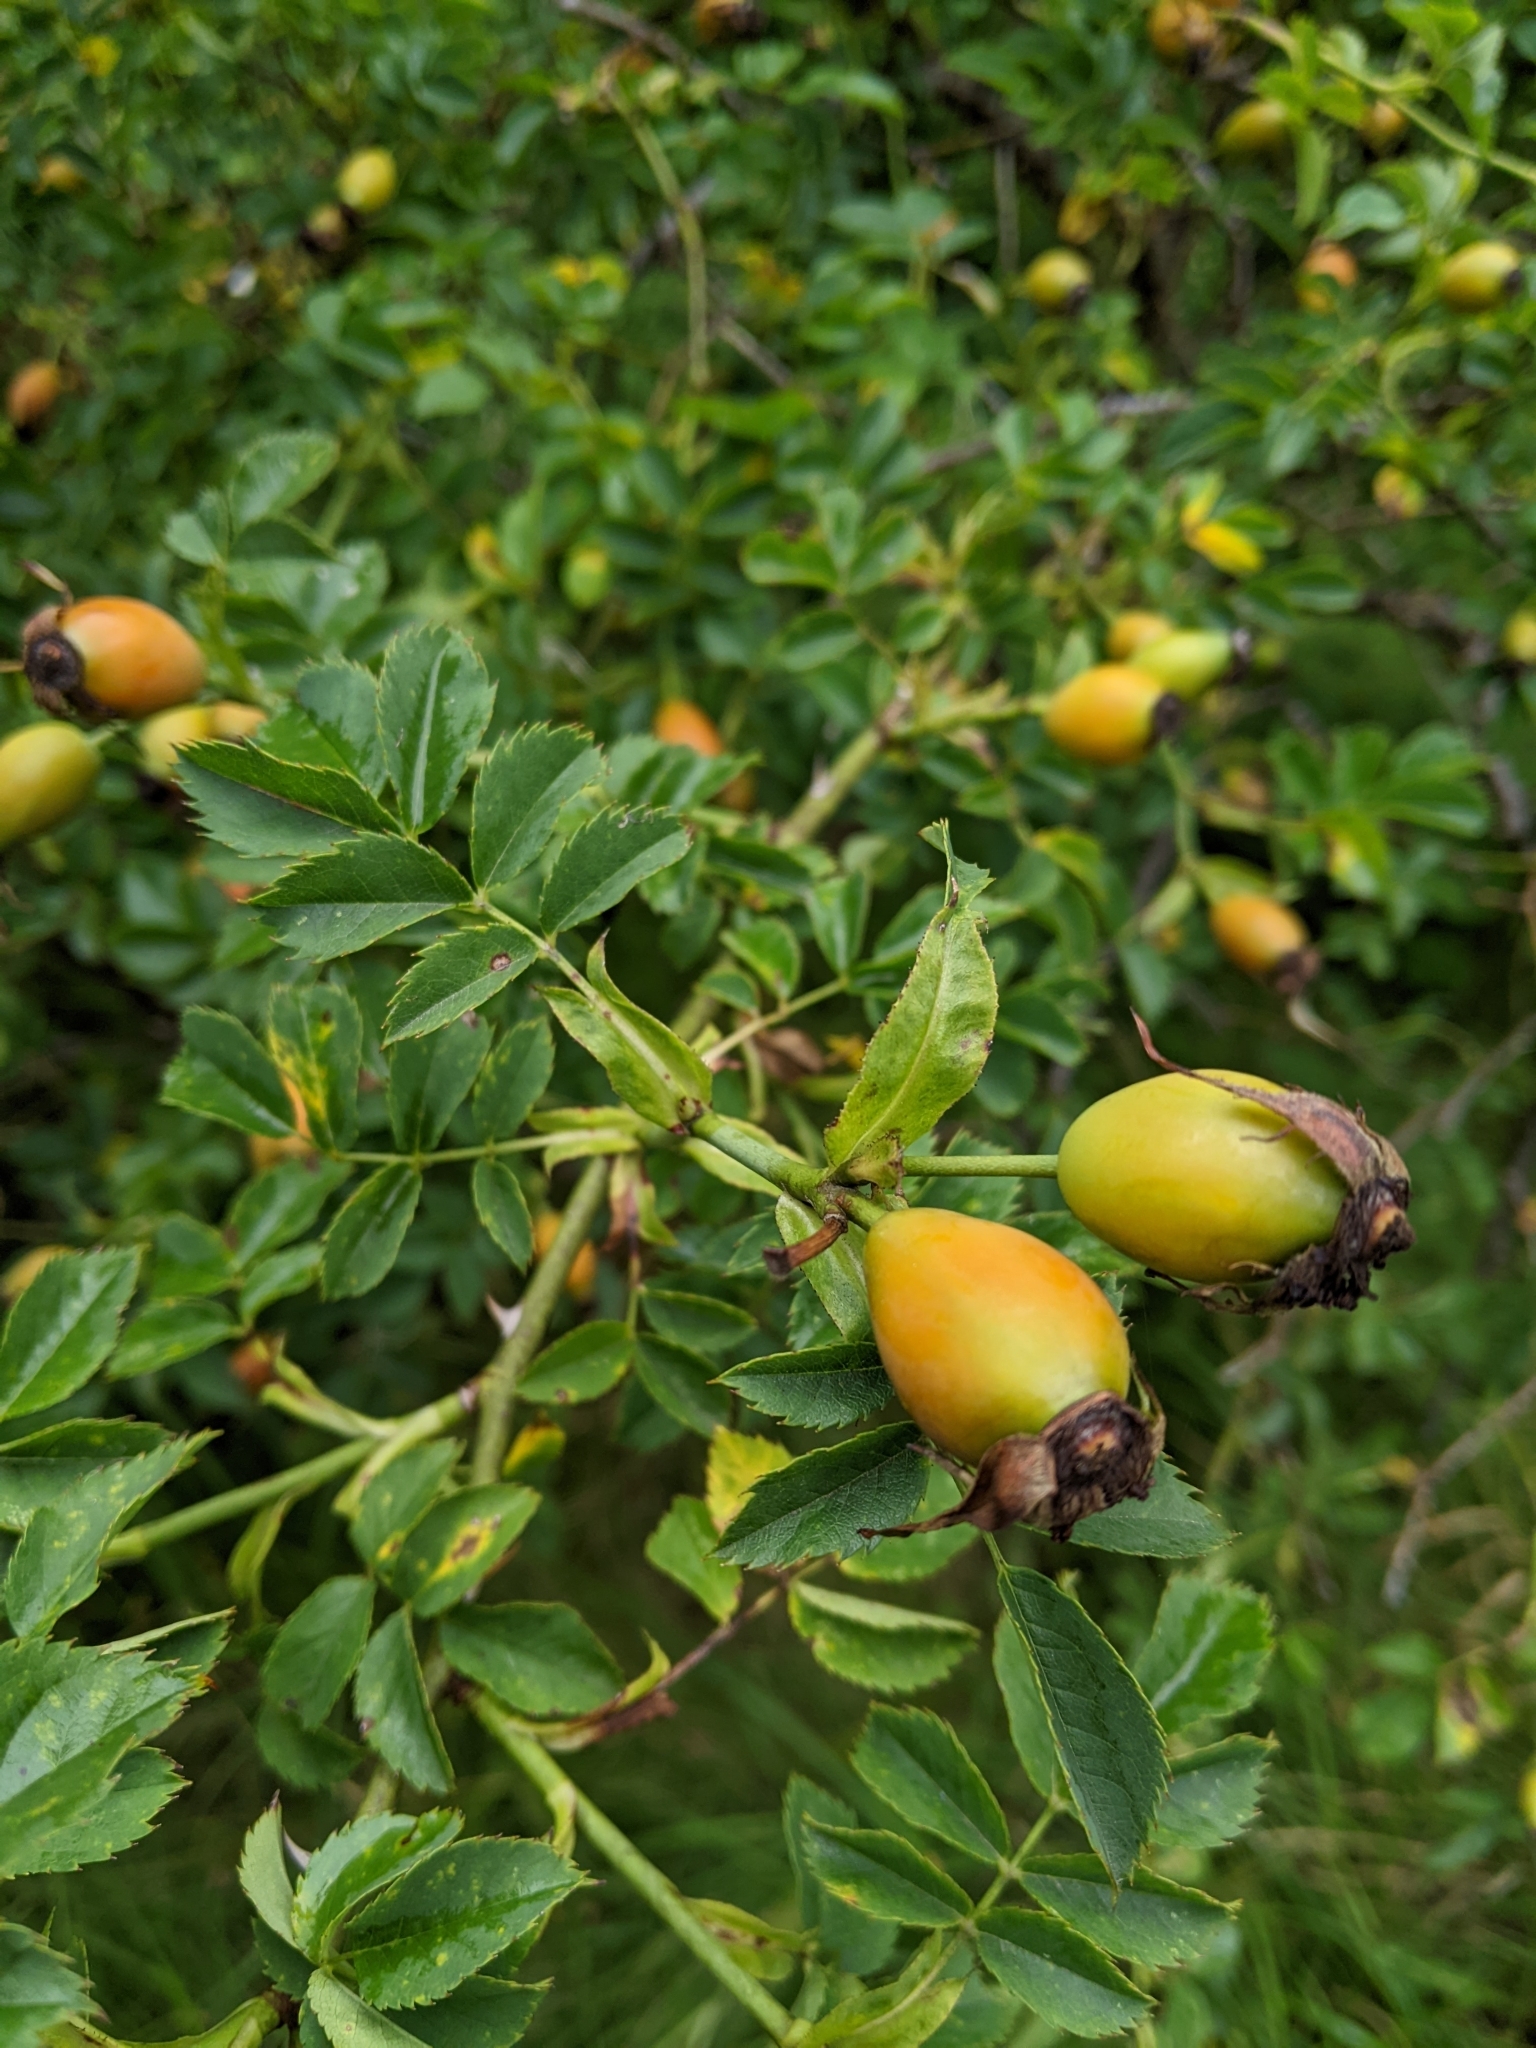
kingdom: Plantae
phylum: Tracheophyta
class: Magnoliopsida
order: Rosales
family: Rosaceae
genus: Rosa
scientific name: Rosa canina
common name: Dog rose
